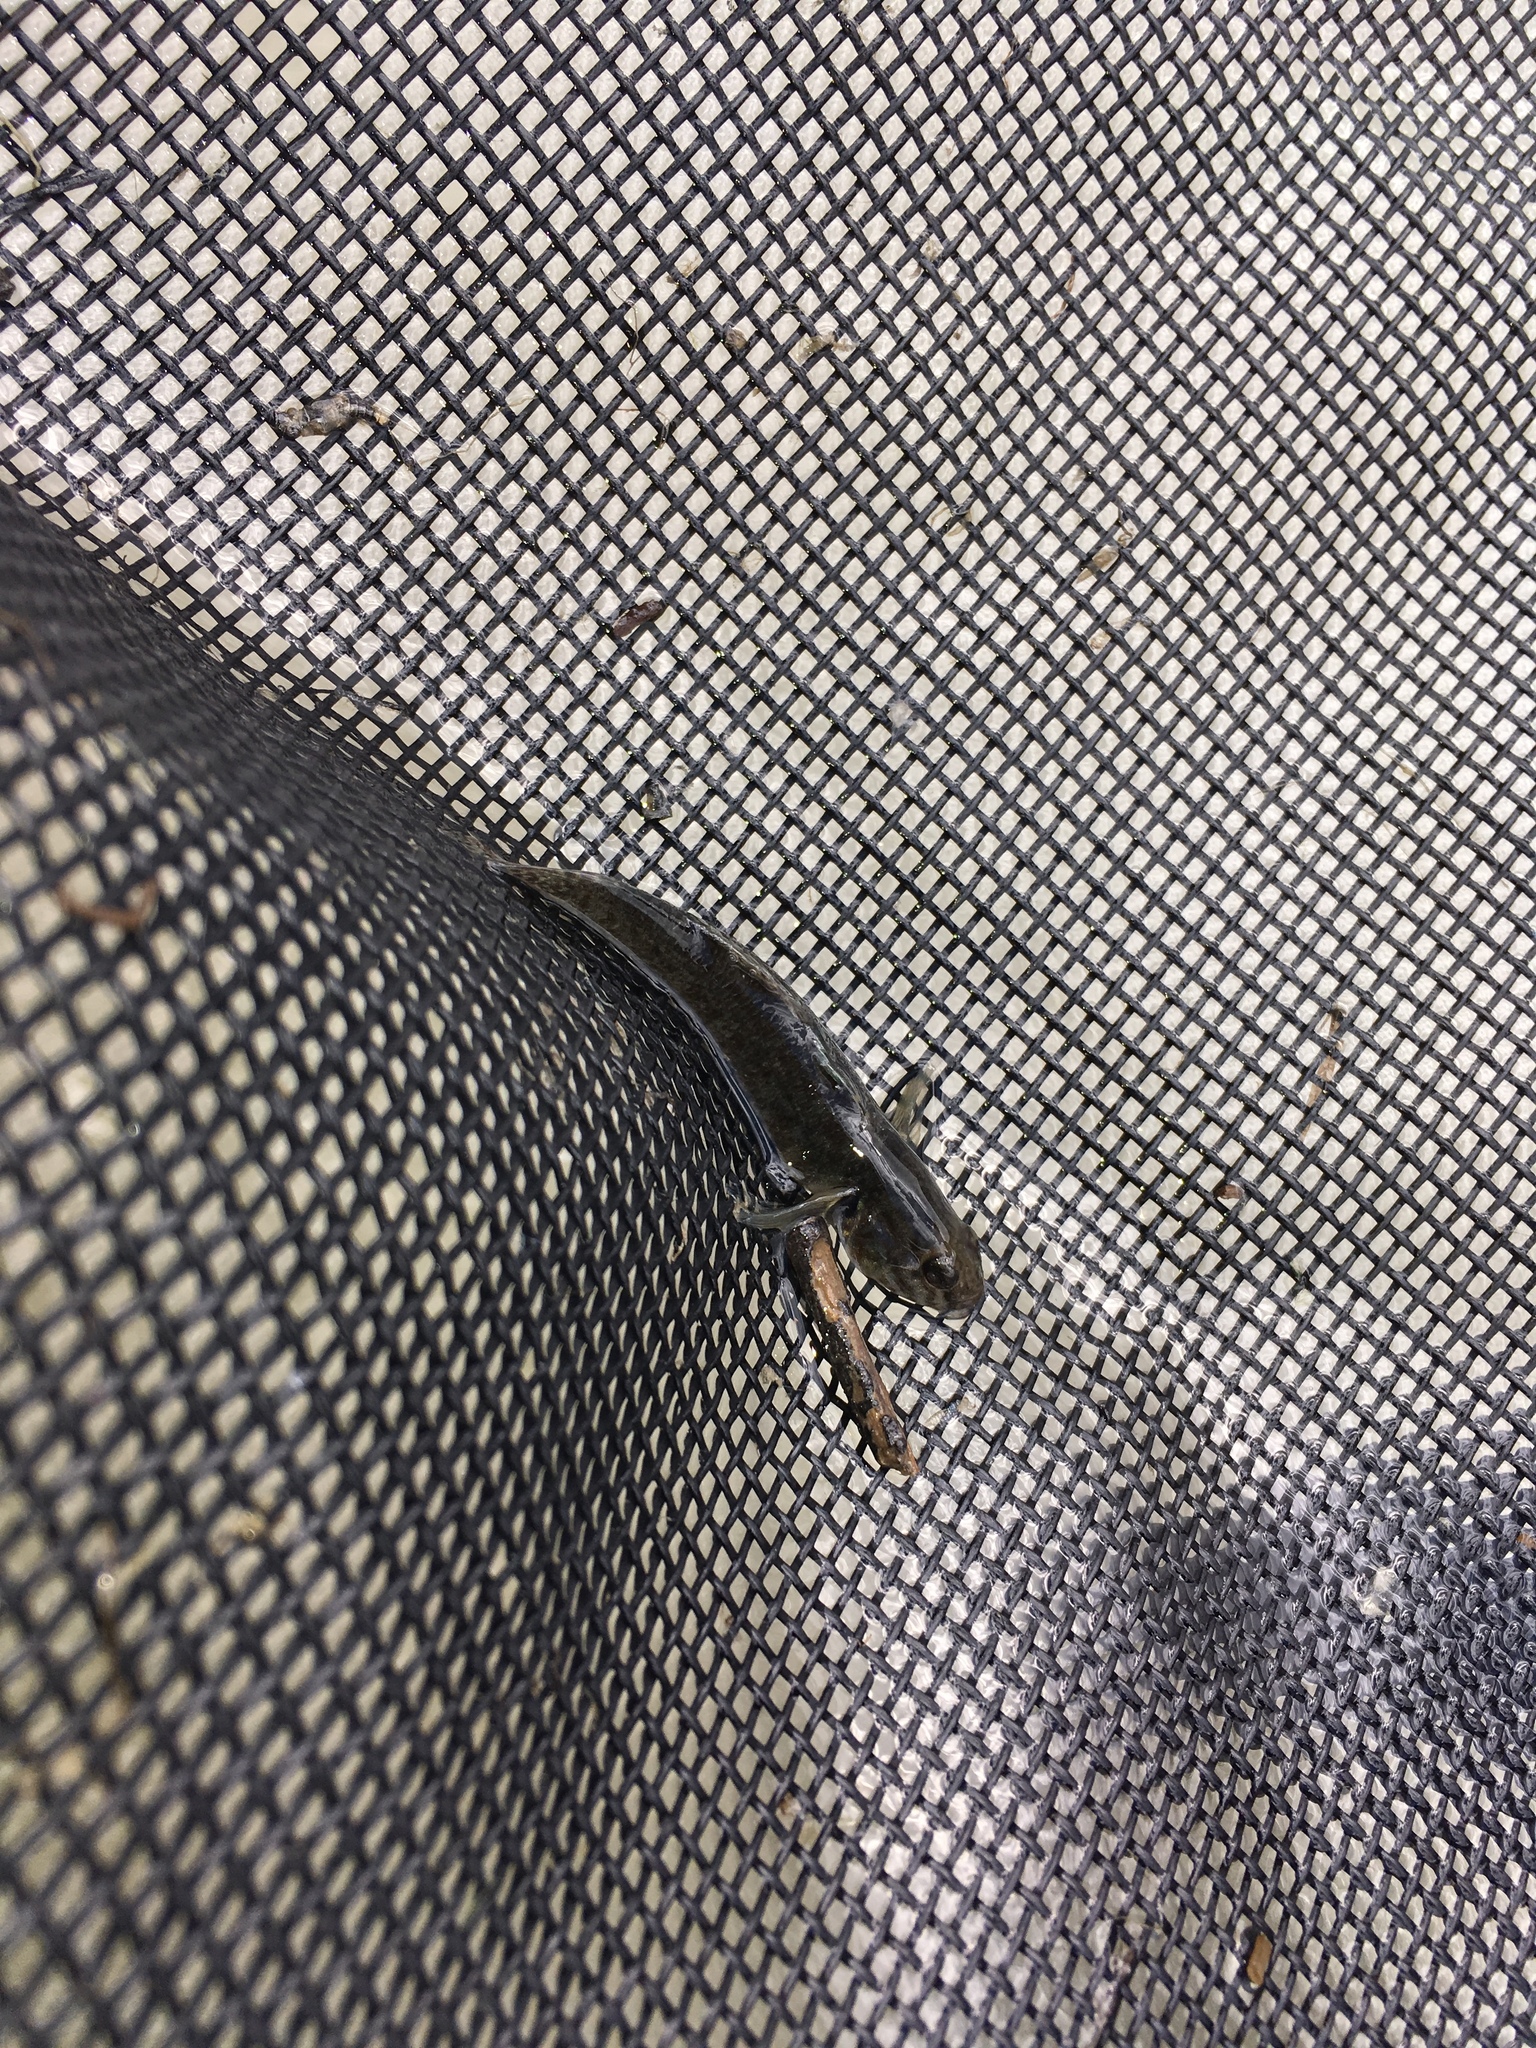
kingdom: Animalia
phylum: Chordata
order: Perciformes
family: Eleotridae
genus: Gobiomorphus
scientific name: Gobiomorphus huttoni
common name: Redfin bully
